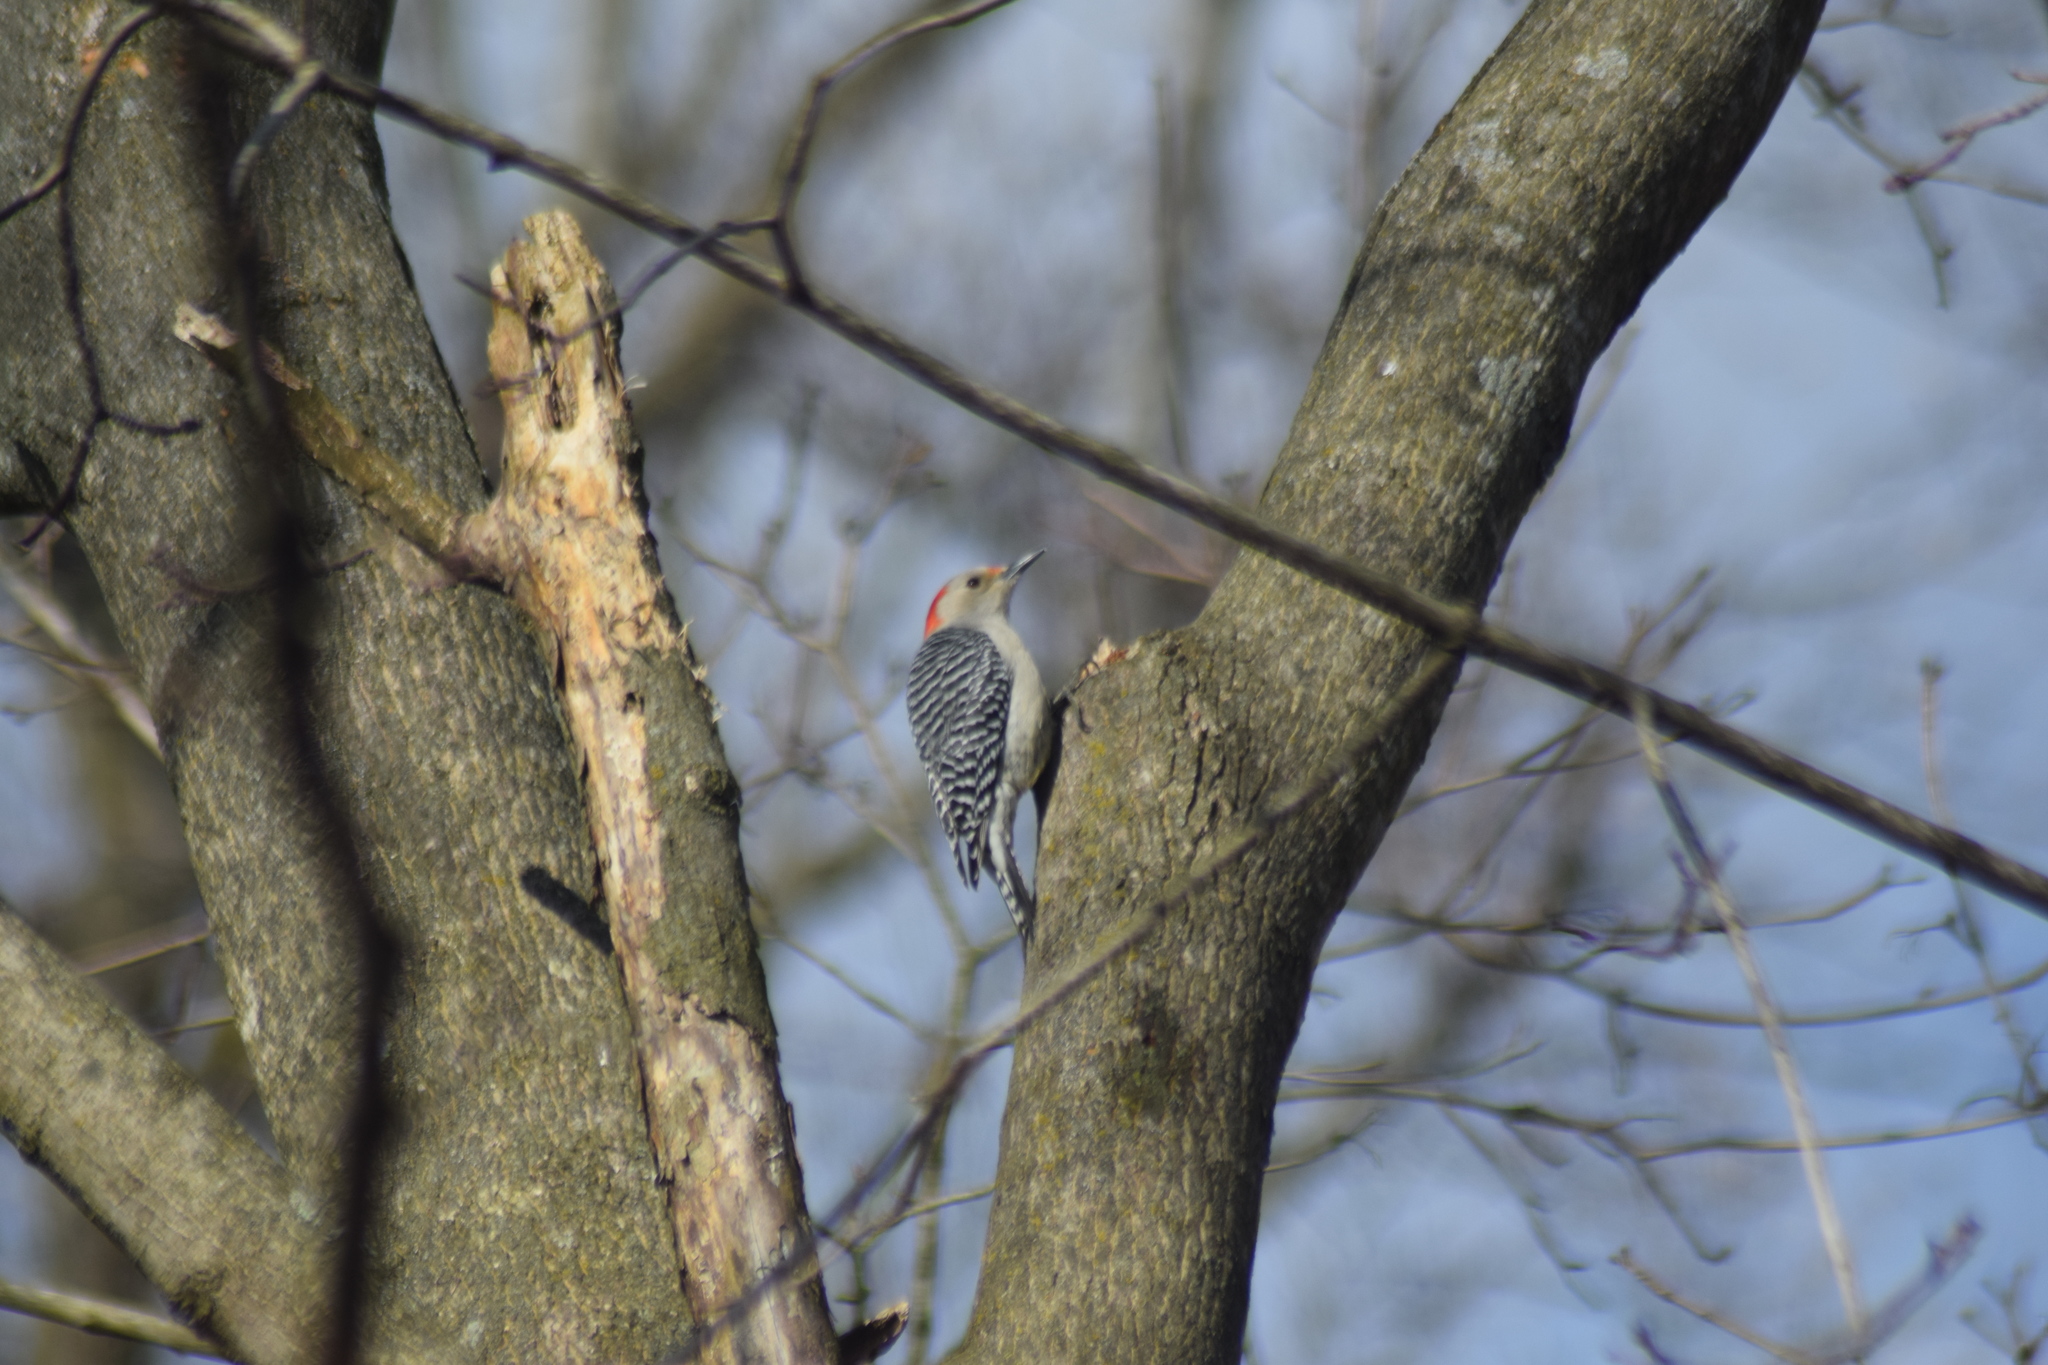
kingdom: Animalia
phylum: Chordata
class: Aves
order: Piciformes
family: Picidae
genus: Melanerpes
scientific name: Melanerpes carolinus
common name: Red-bellied woodpecker
